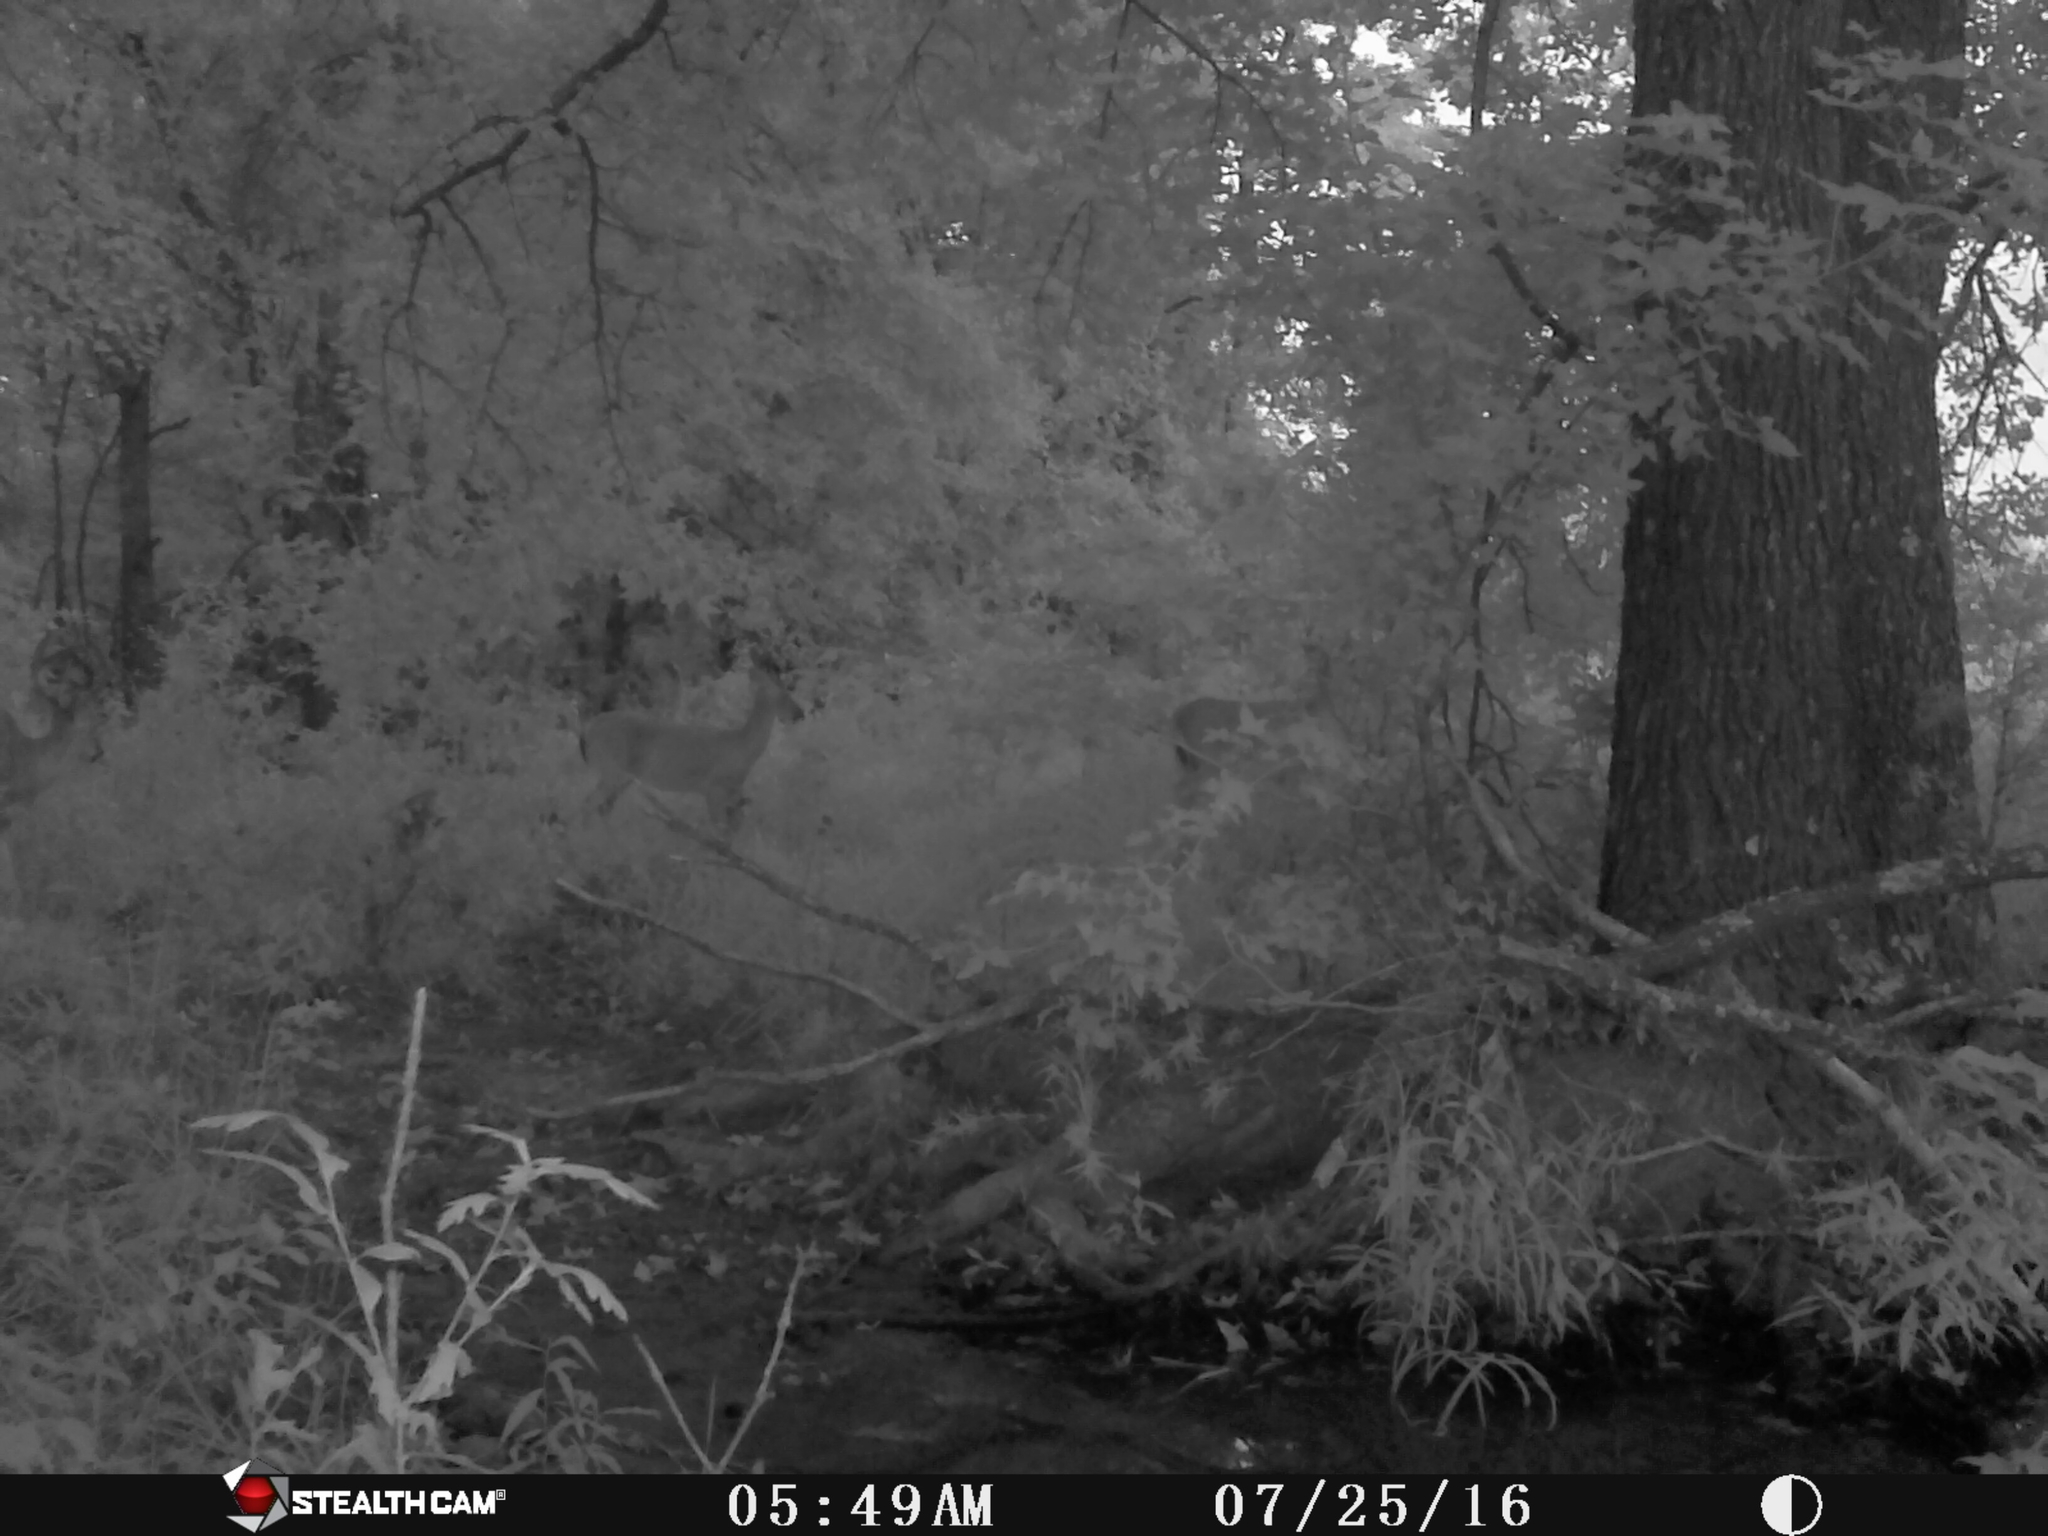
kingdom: Animalia
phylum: Chordata
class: Mammalia
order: Artiodactyla
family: Cervidae
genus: Odocoileus
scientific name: Odocoileus virginianus
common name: White-tailed deer
